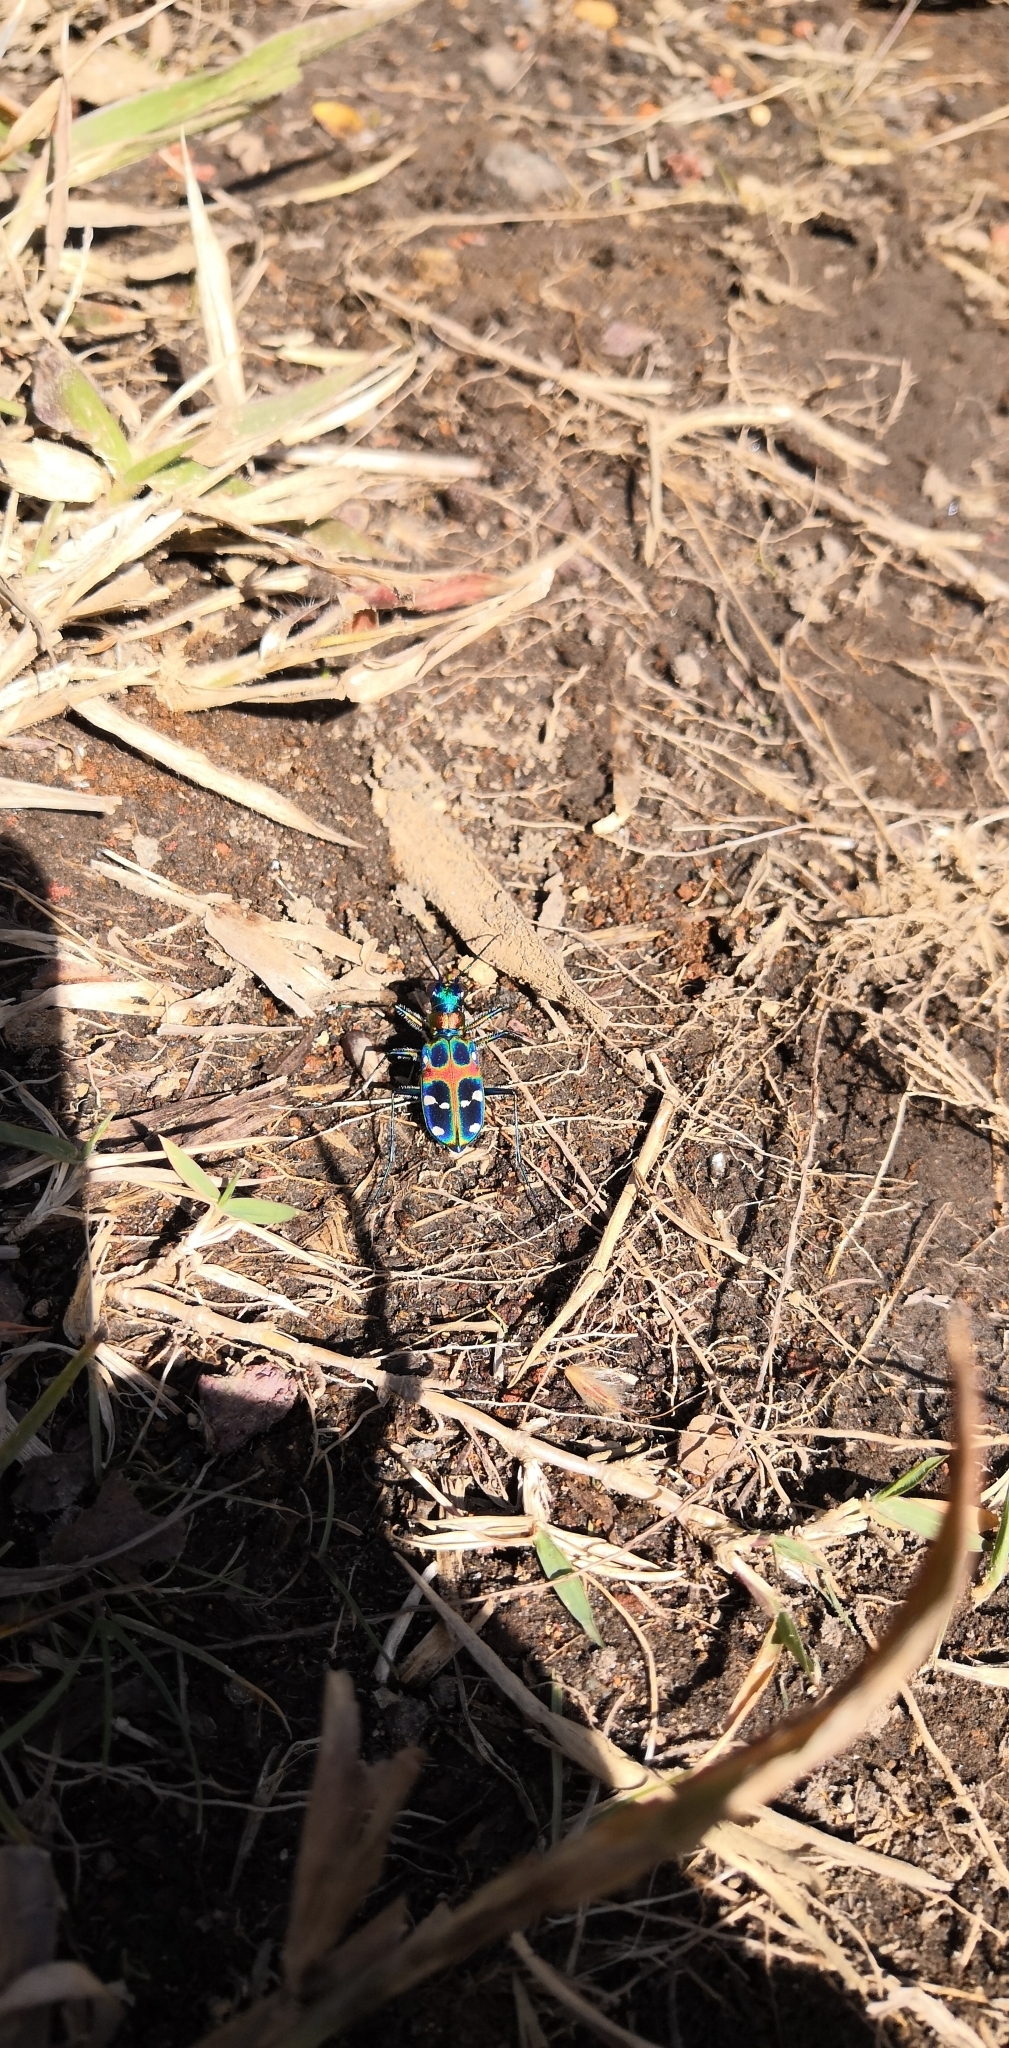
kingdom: Animalia
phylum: Arthropoda
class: Insecta
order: Coleoptera
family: Carabidae
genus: Cicindela
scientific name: Cicindela chinensis
